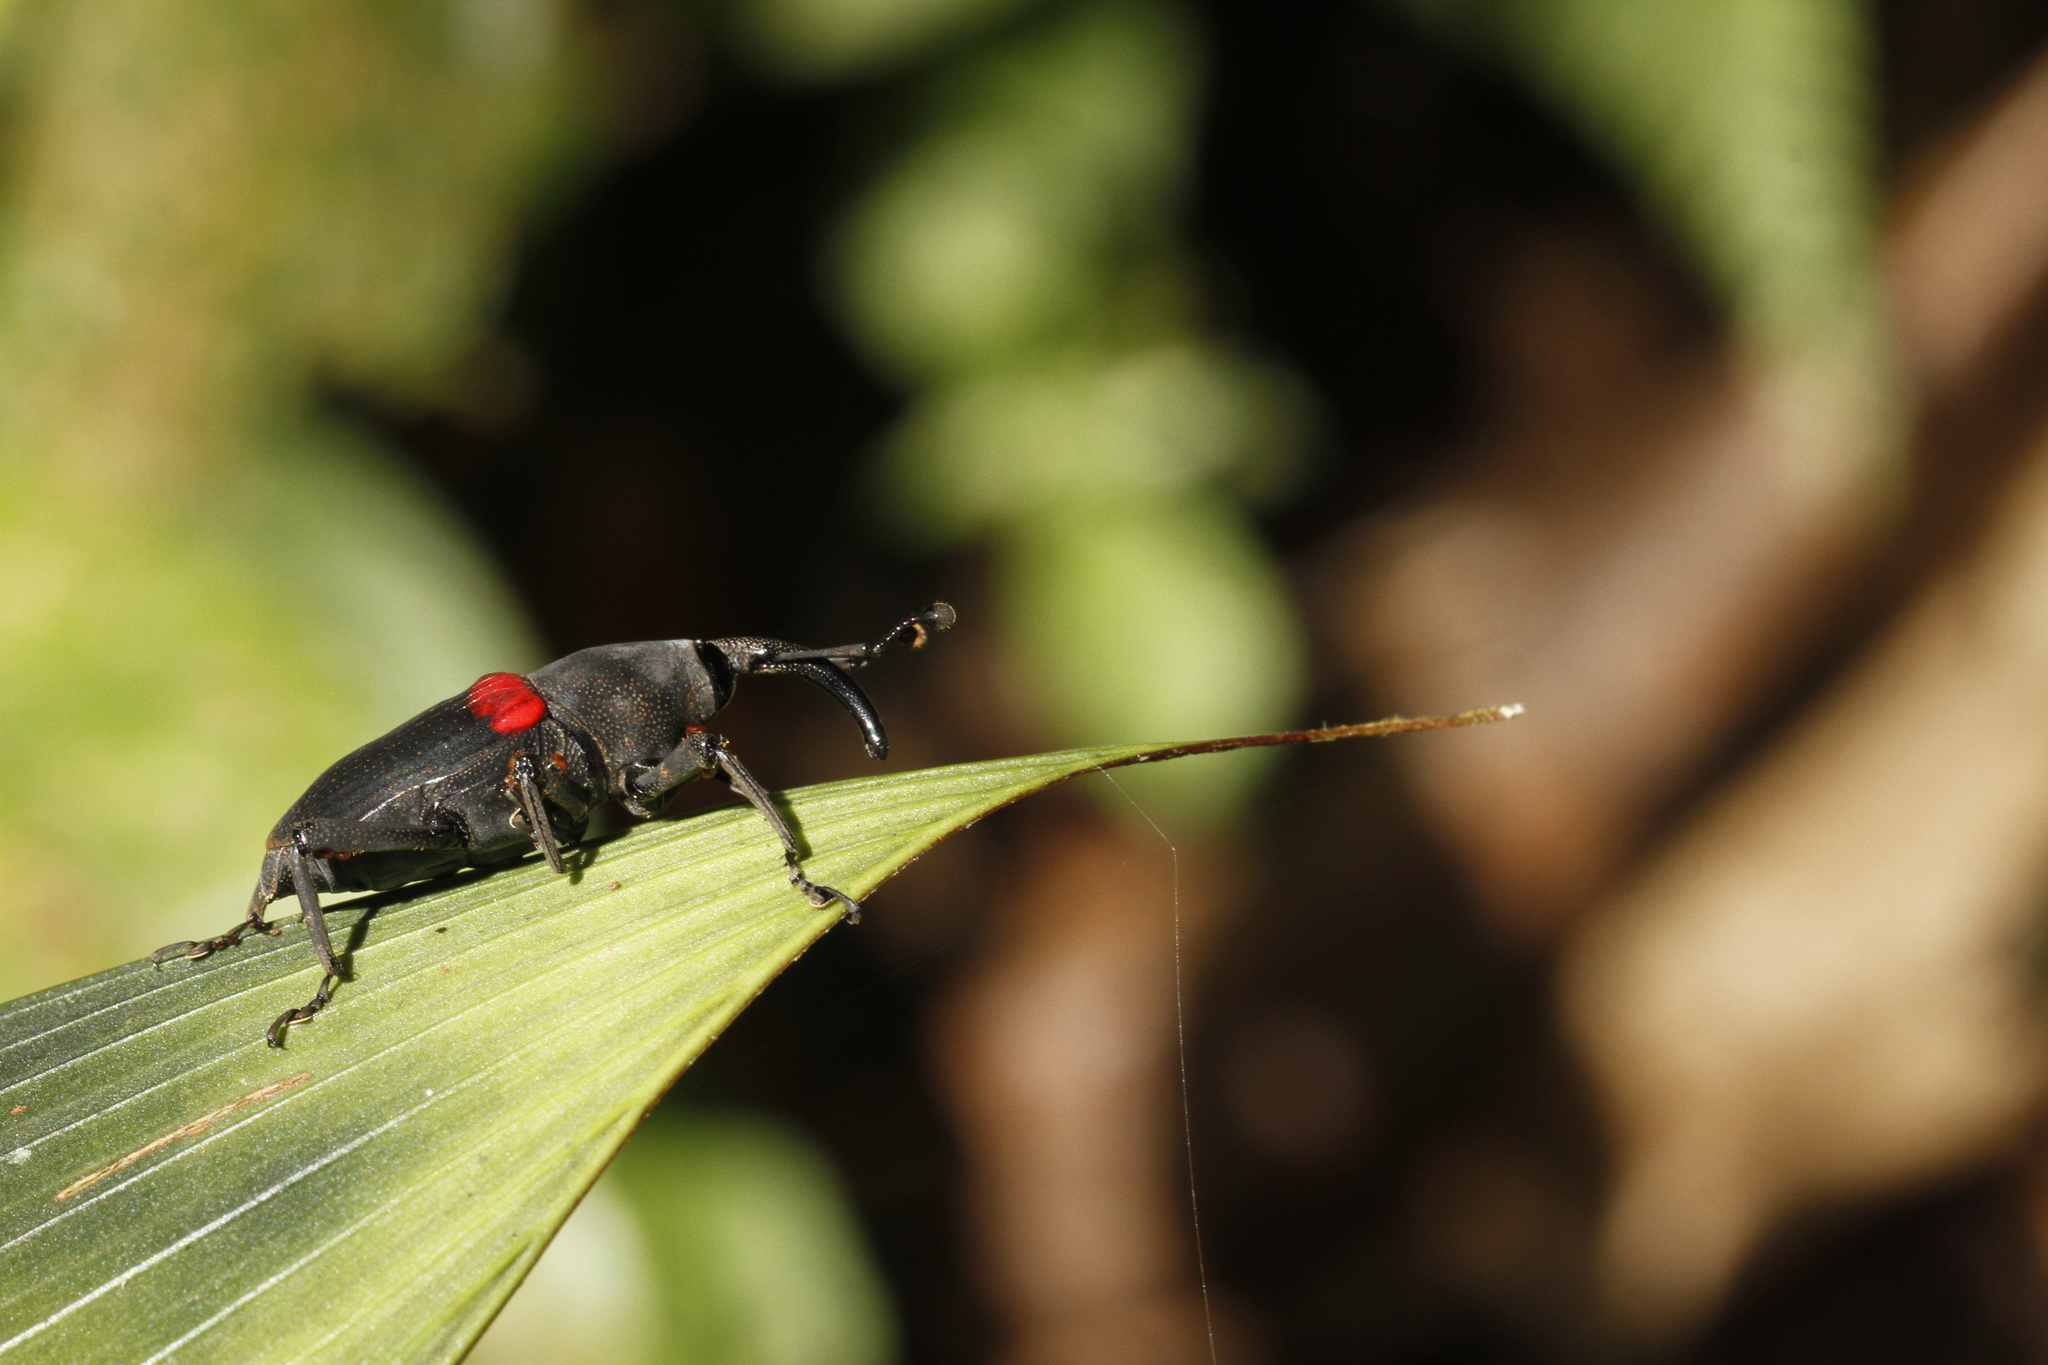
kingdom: Animalia
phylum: Arthropoda
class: Insecta
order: Coleoptera
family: Dryophthoridae
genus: Cactophagus
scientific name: Cactophagus sanguinolentus
